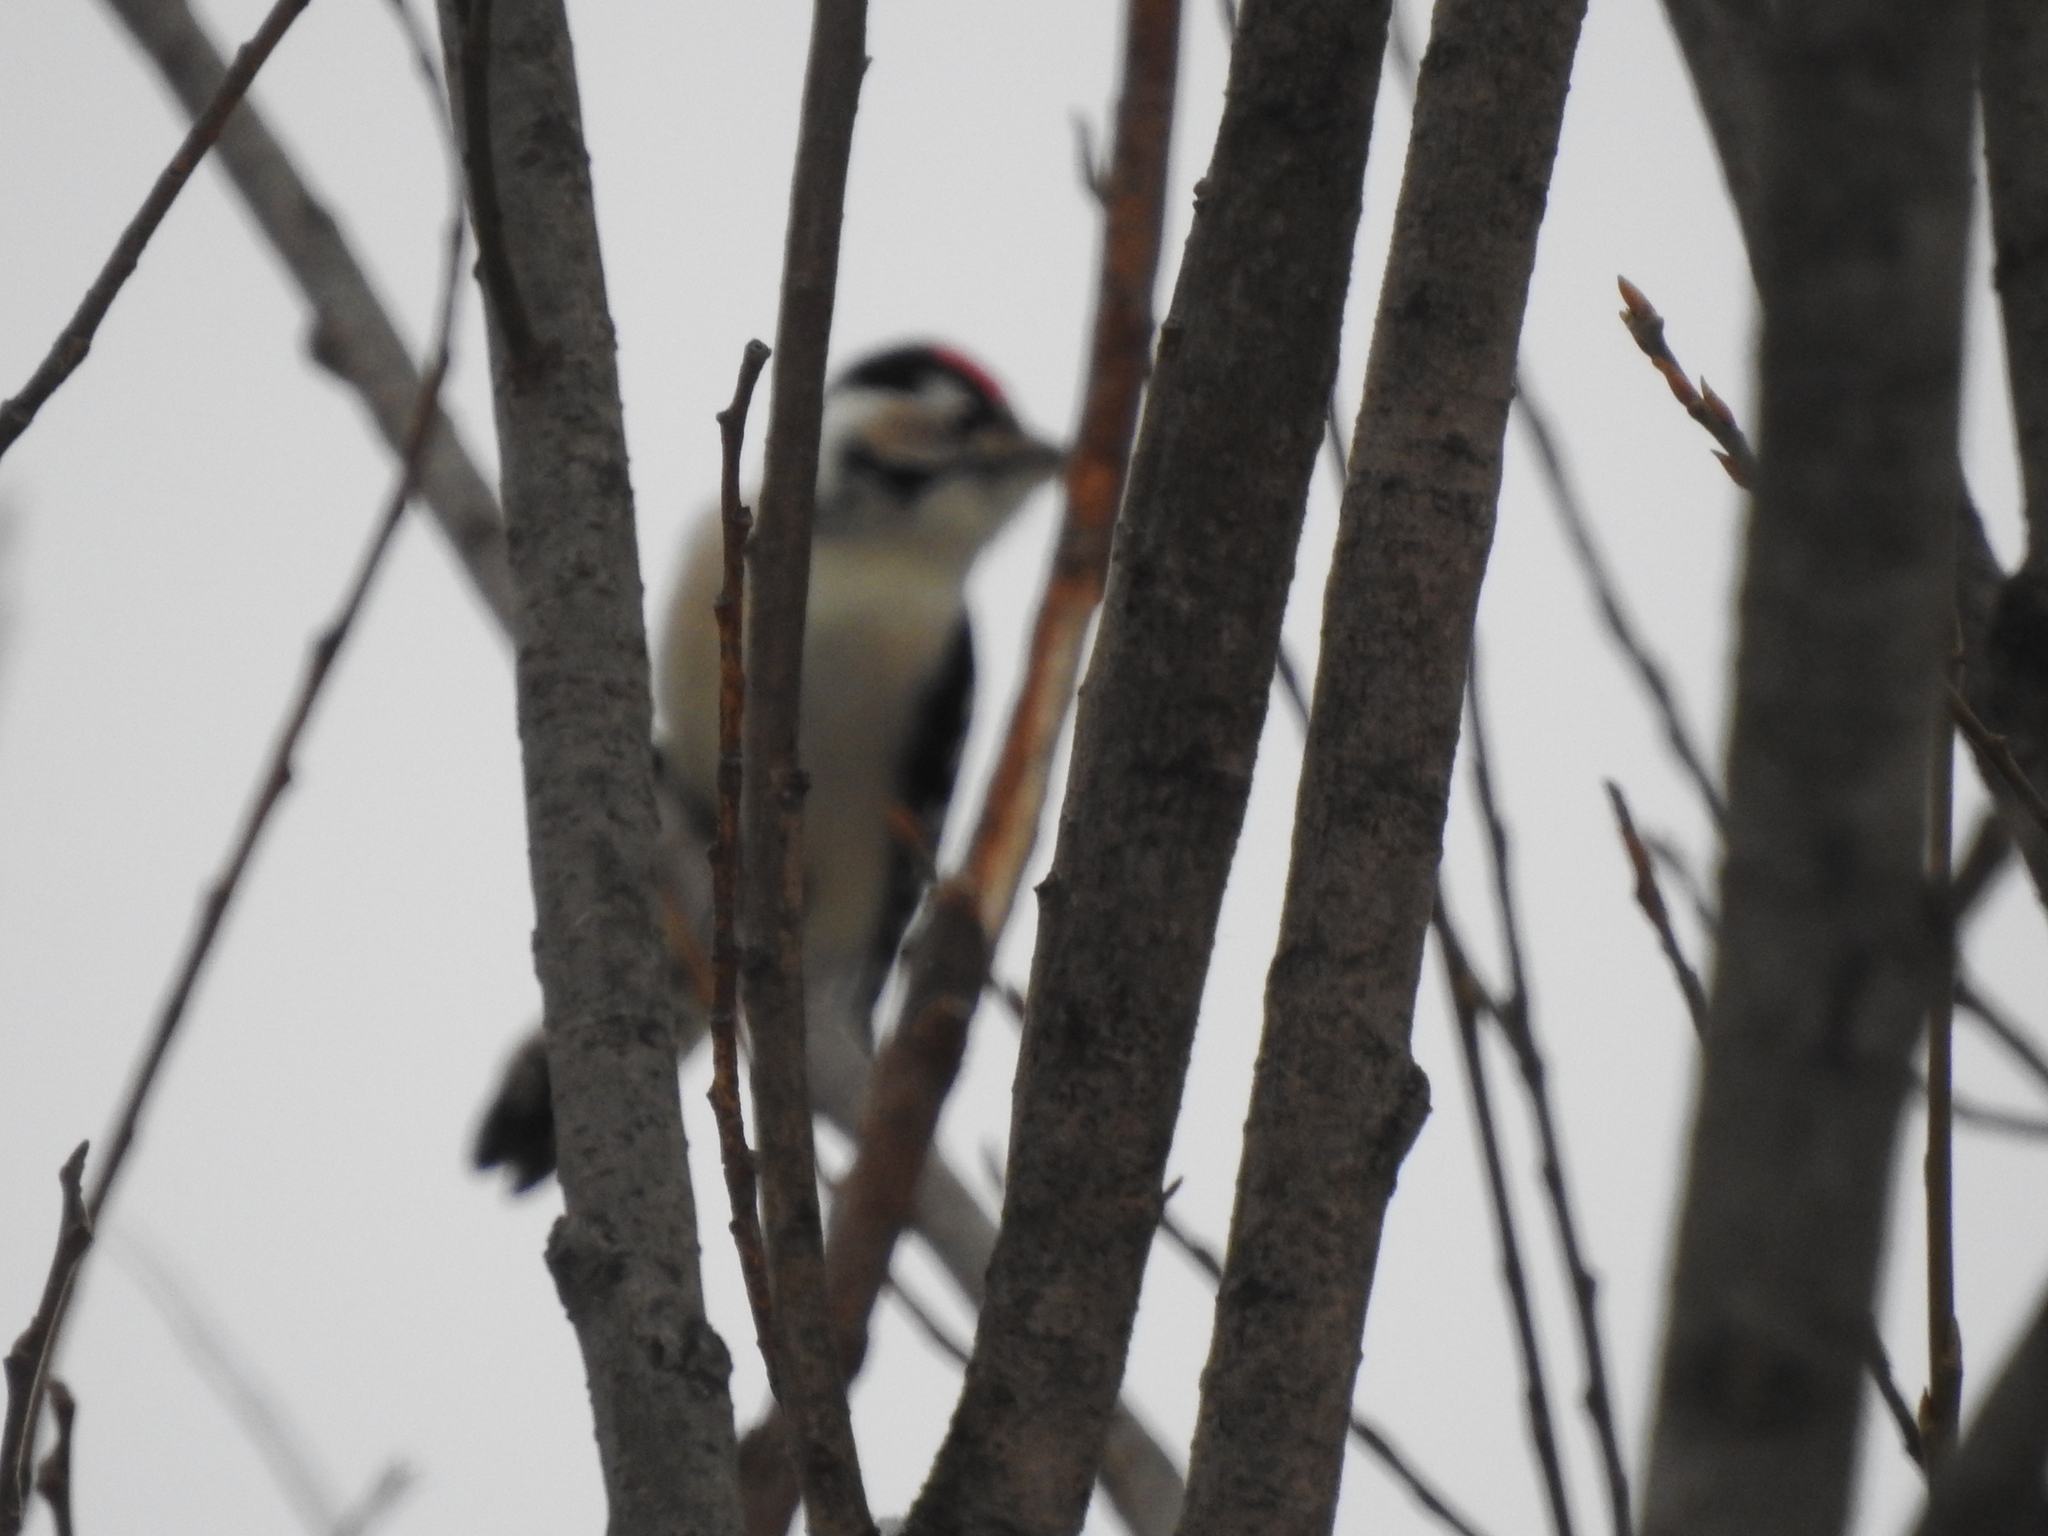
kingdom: Animalia
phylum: Chordata
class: Aves
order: Piciformes
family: Picidae
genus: Dryobates
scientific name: Dryobates minor
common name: Lesser spotted woodpecker
